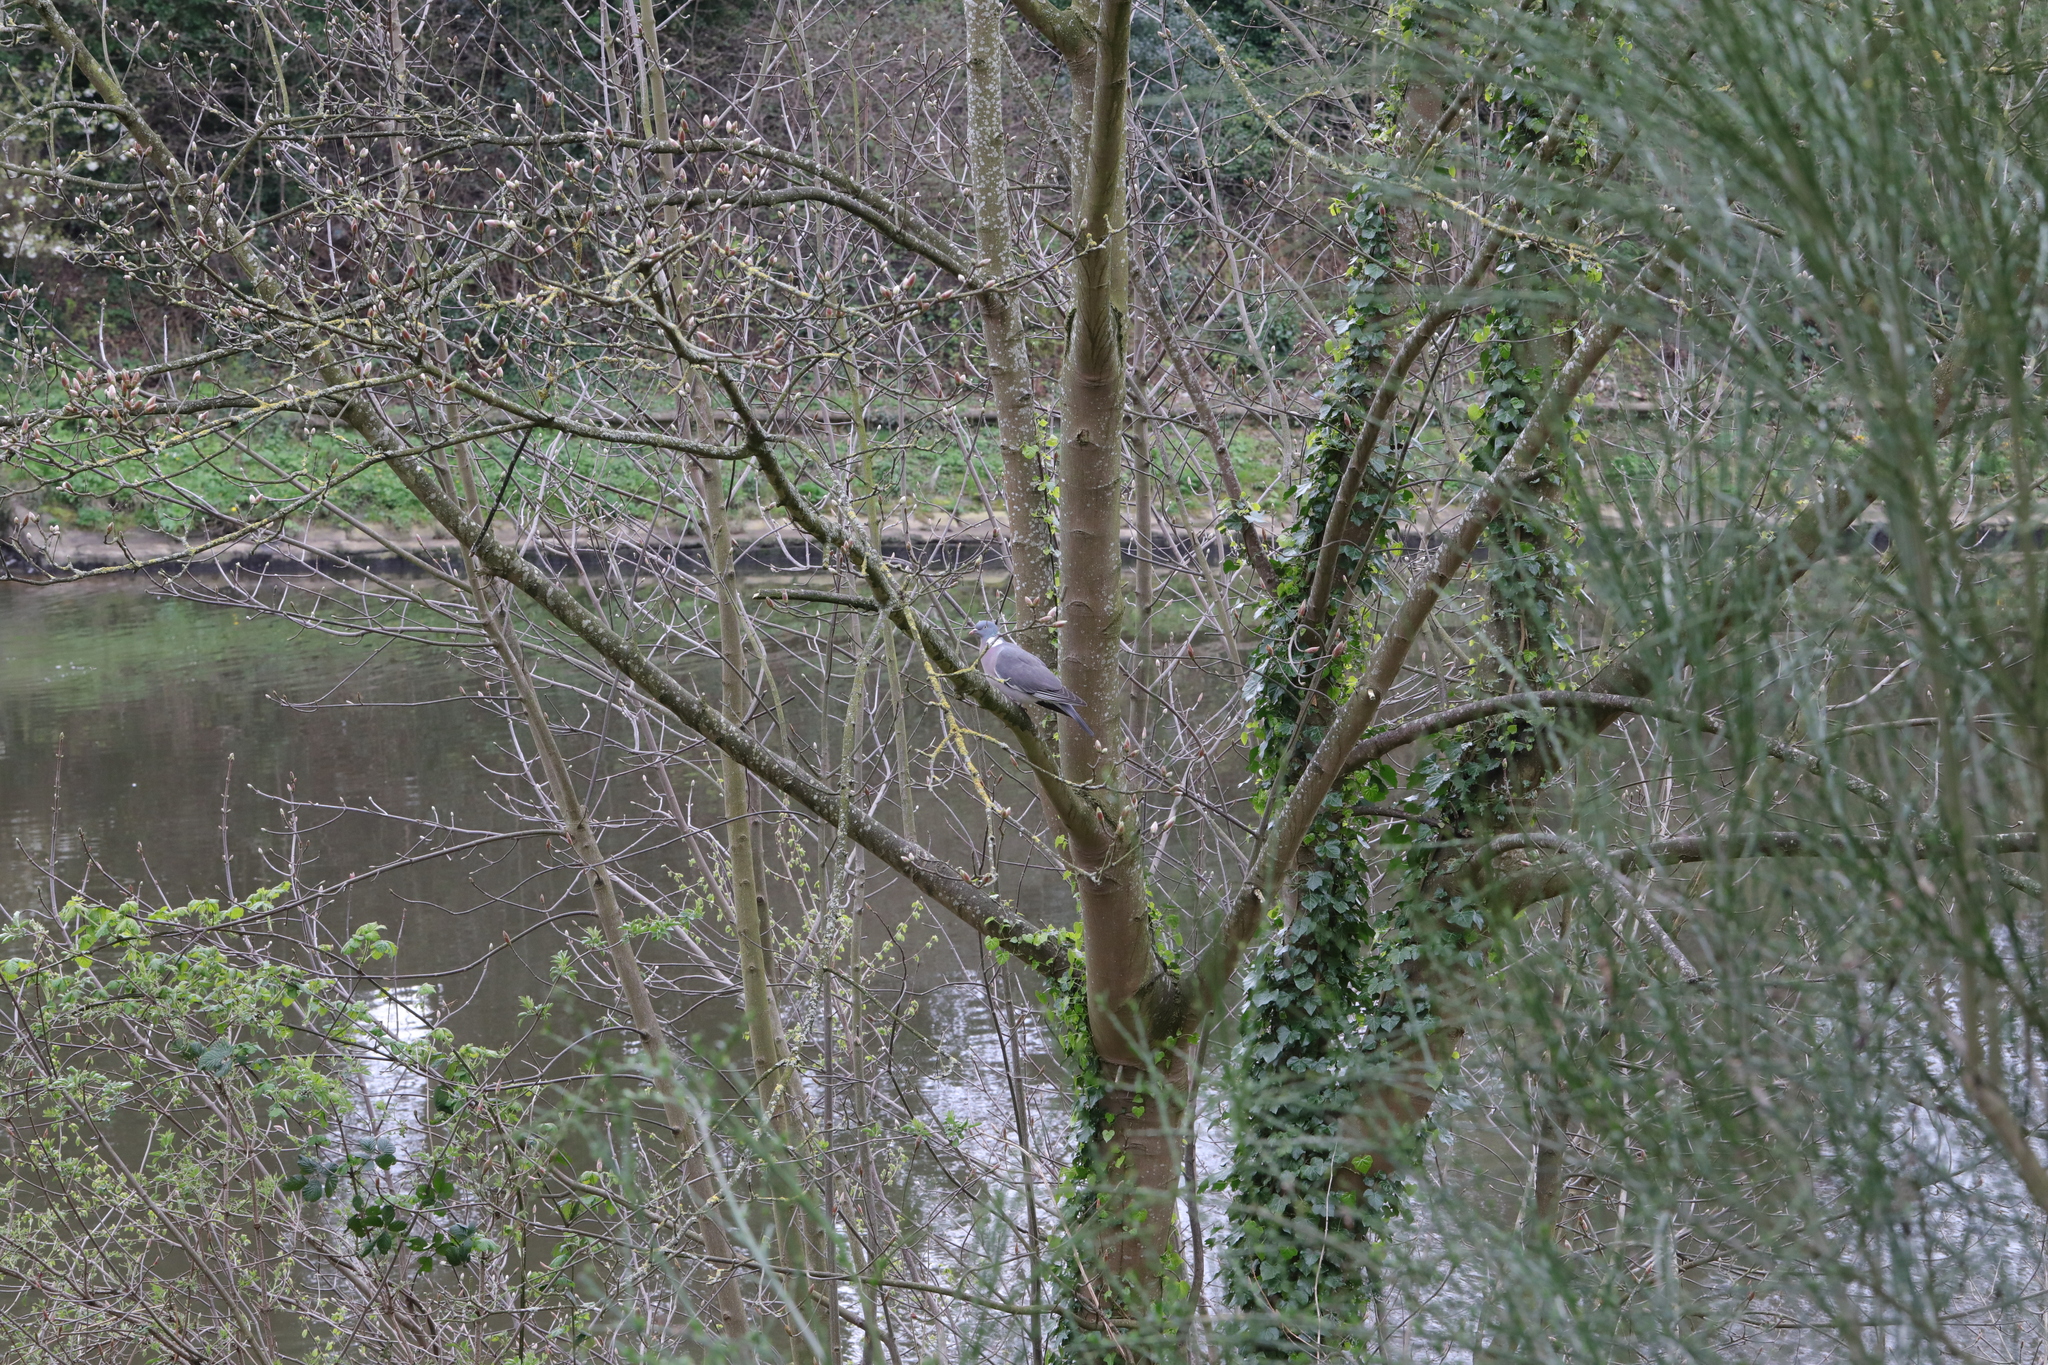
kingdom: Animalia
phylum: Chordata
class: Aves
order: Columbiformes
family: Columbidae
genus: Columba
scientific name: Columba palumbus
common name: Common wood pigeon
